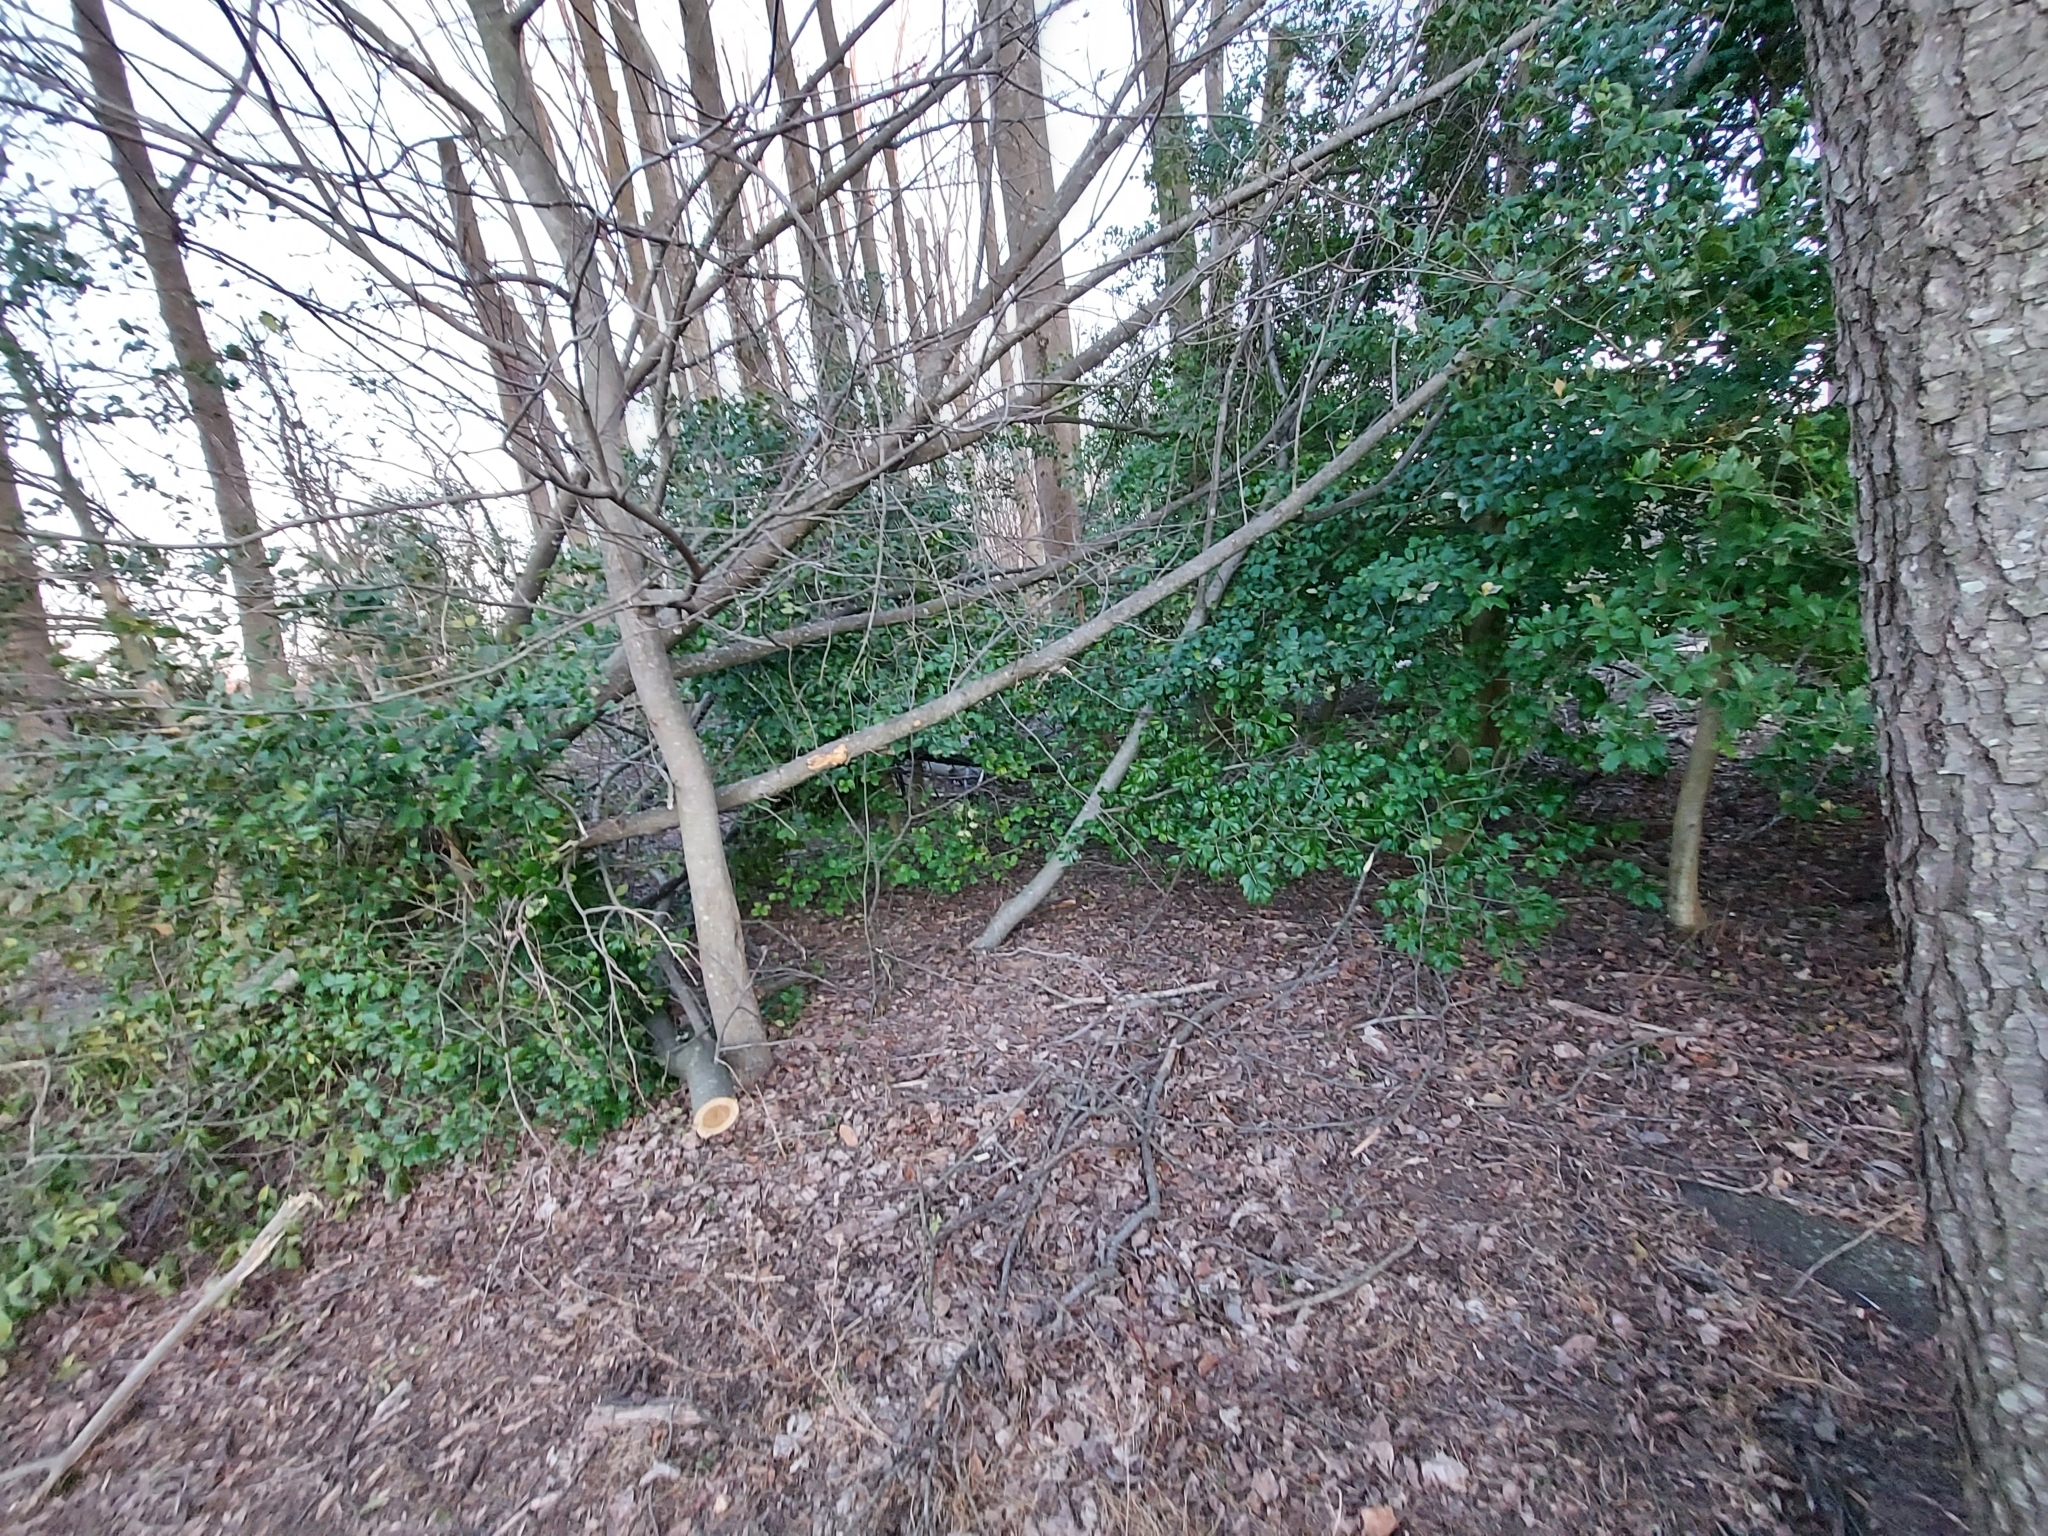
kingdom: Plantae
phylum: Tracheophyta
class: Magnoliopsida
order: Aquifoliales
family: Aquifoliaceae
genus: Ilex
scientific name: Ilex opaca
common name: American holly
